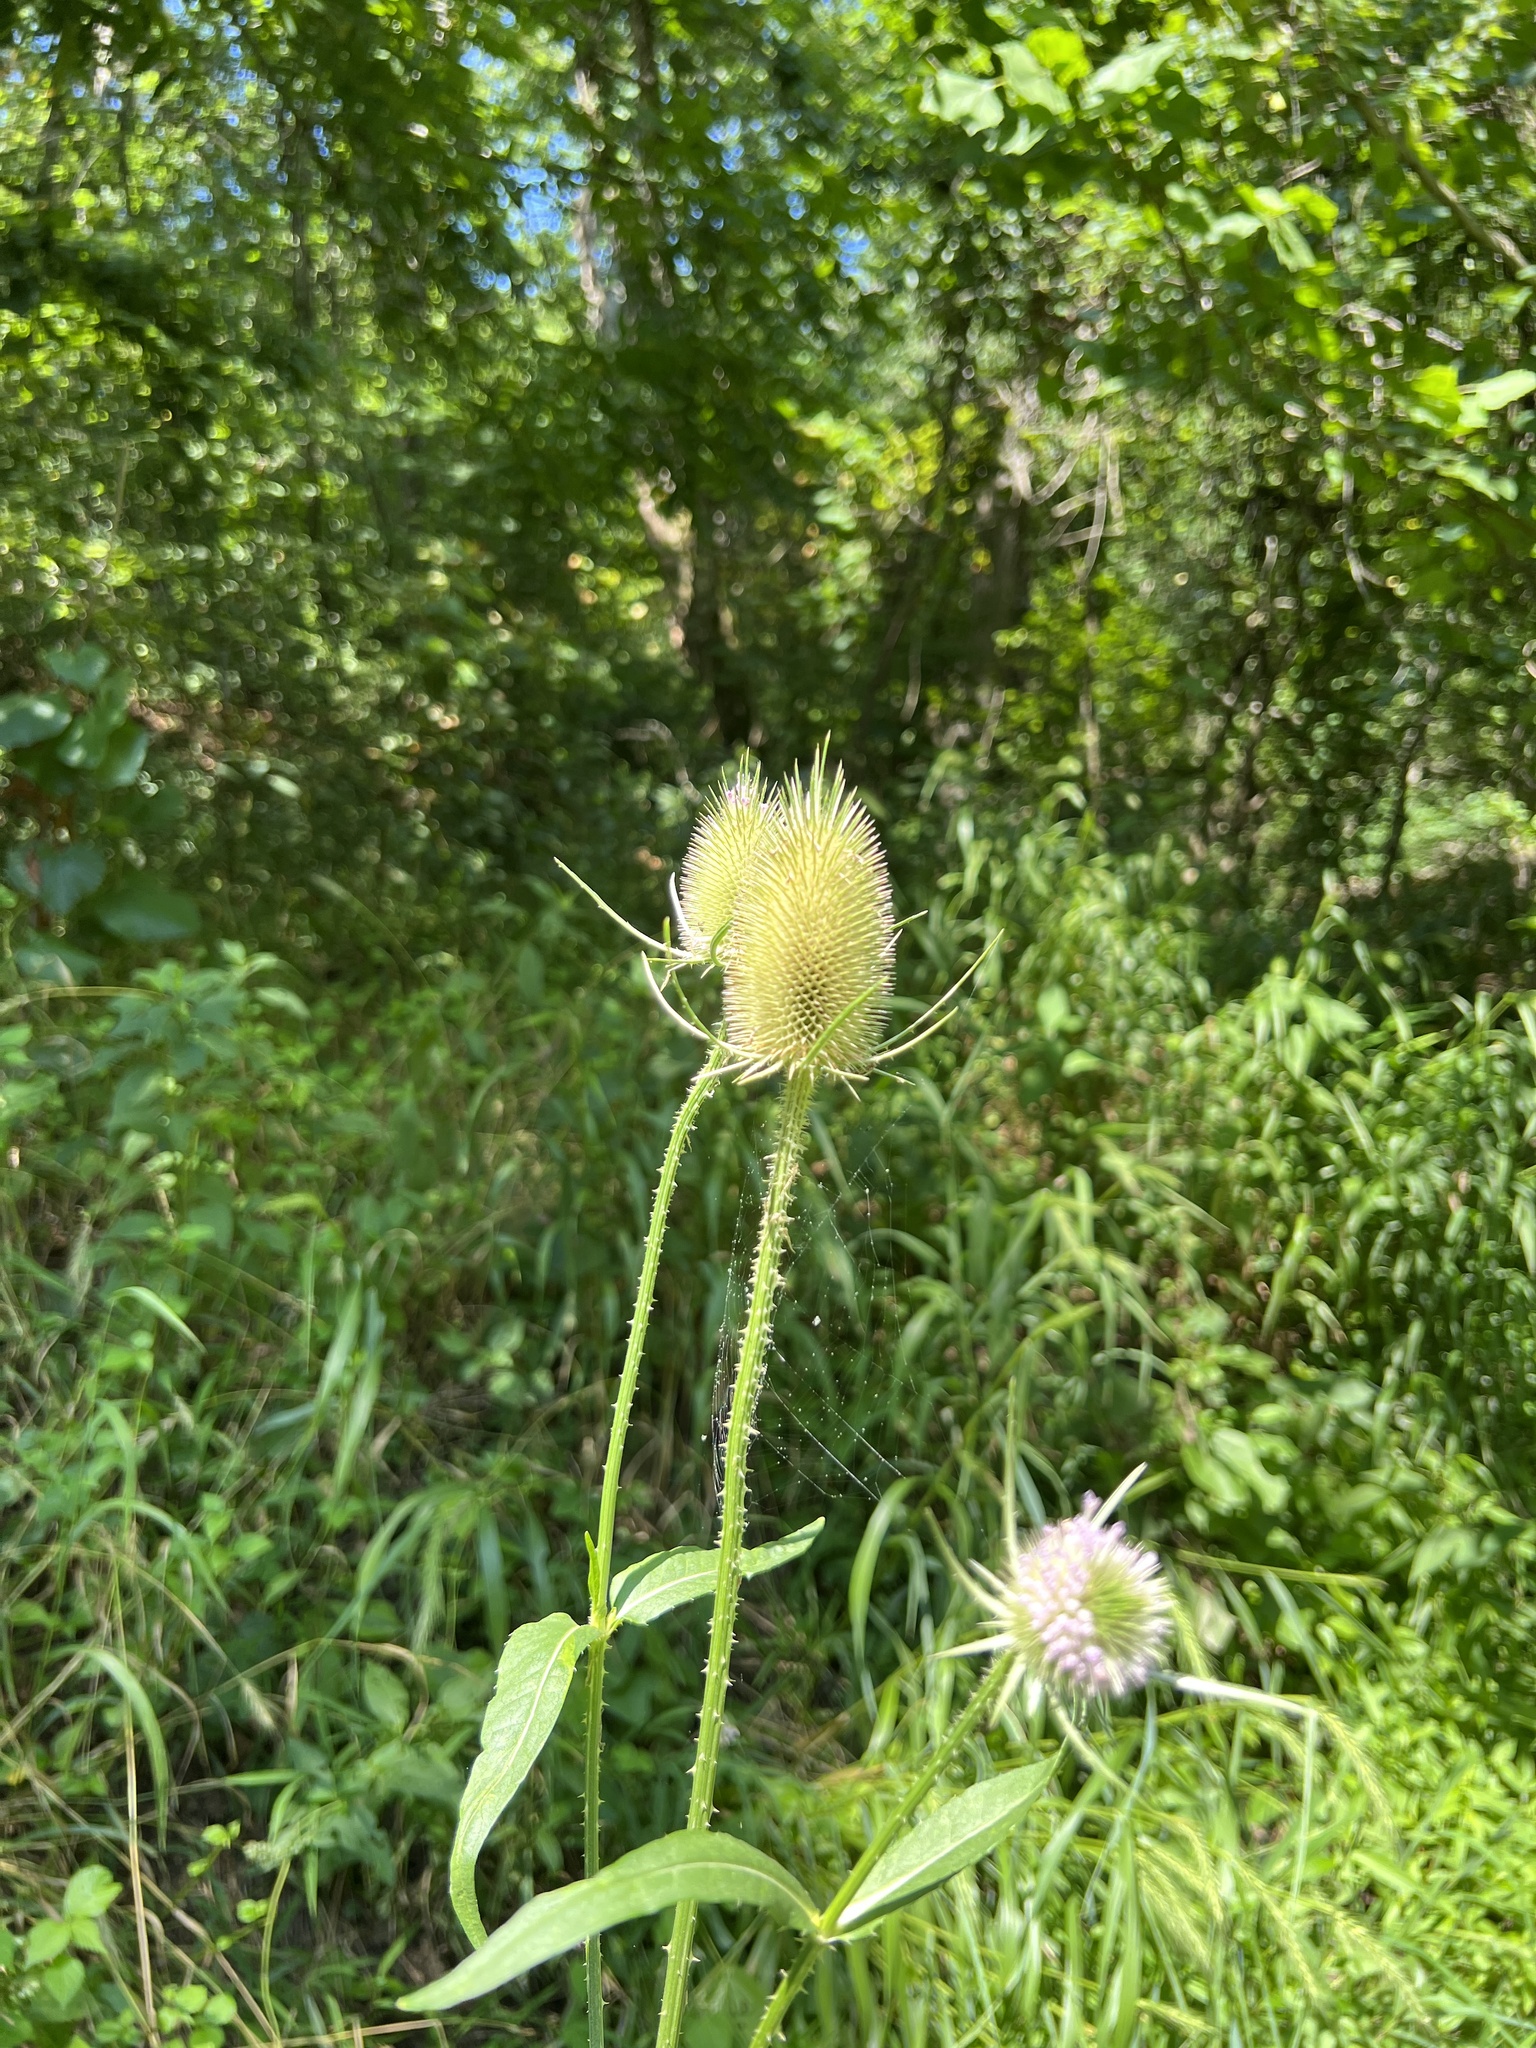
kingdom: Plantae
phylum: Tracheophyta
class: Magnoliopsida
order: Dipsacales
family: Caprifoliaceae
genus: Dipsacus
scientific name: Dipsacus fullonum
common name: Teasel
